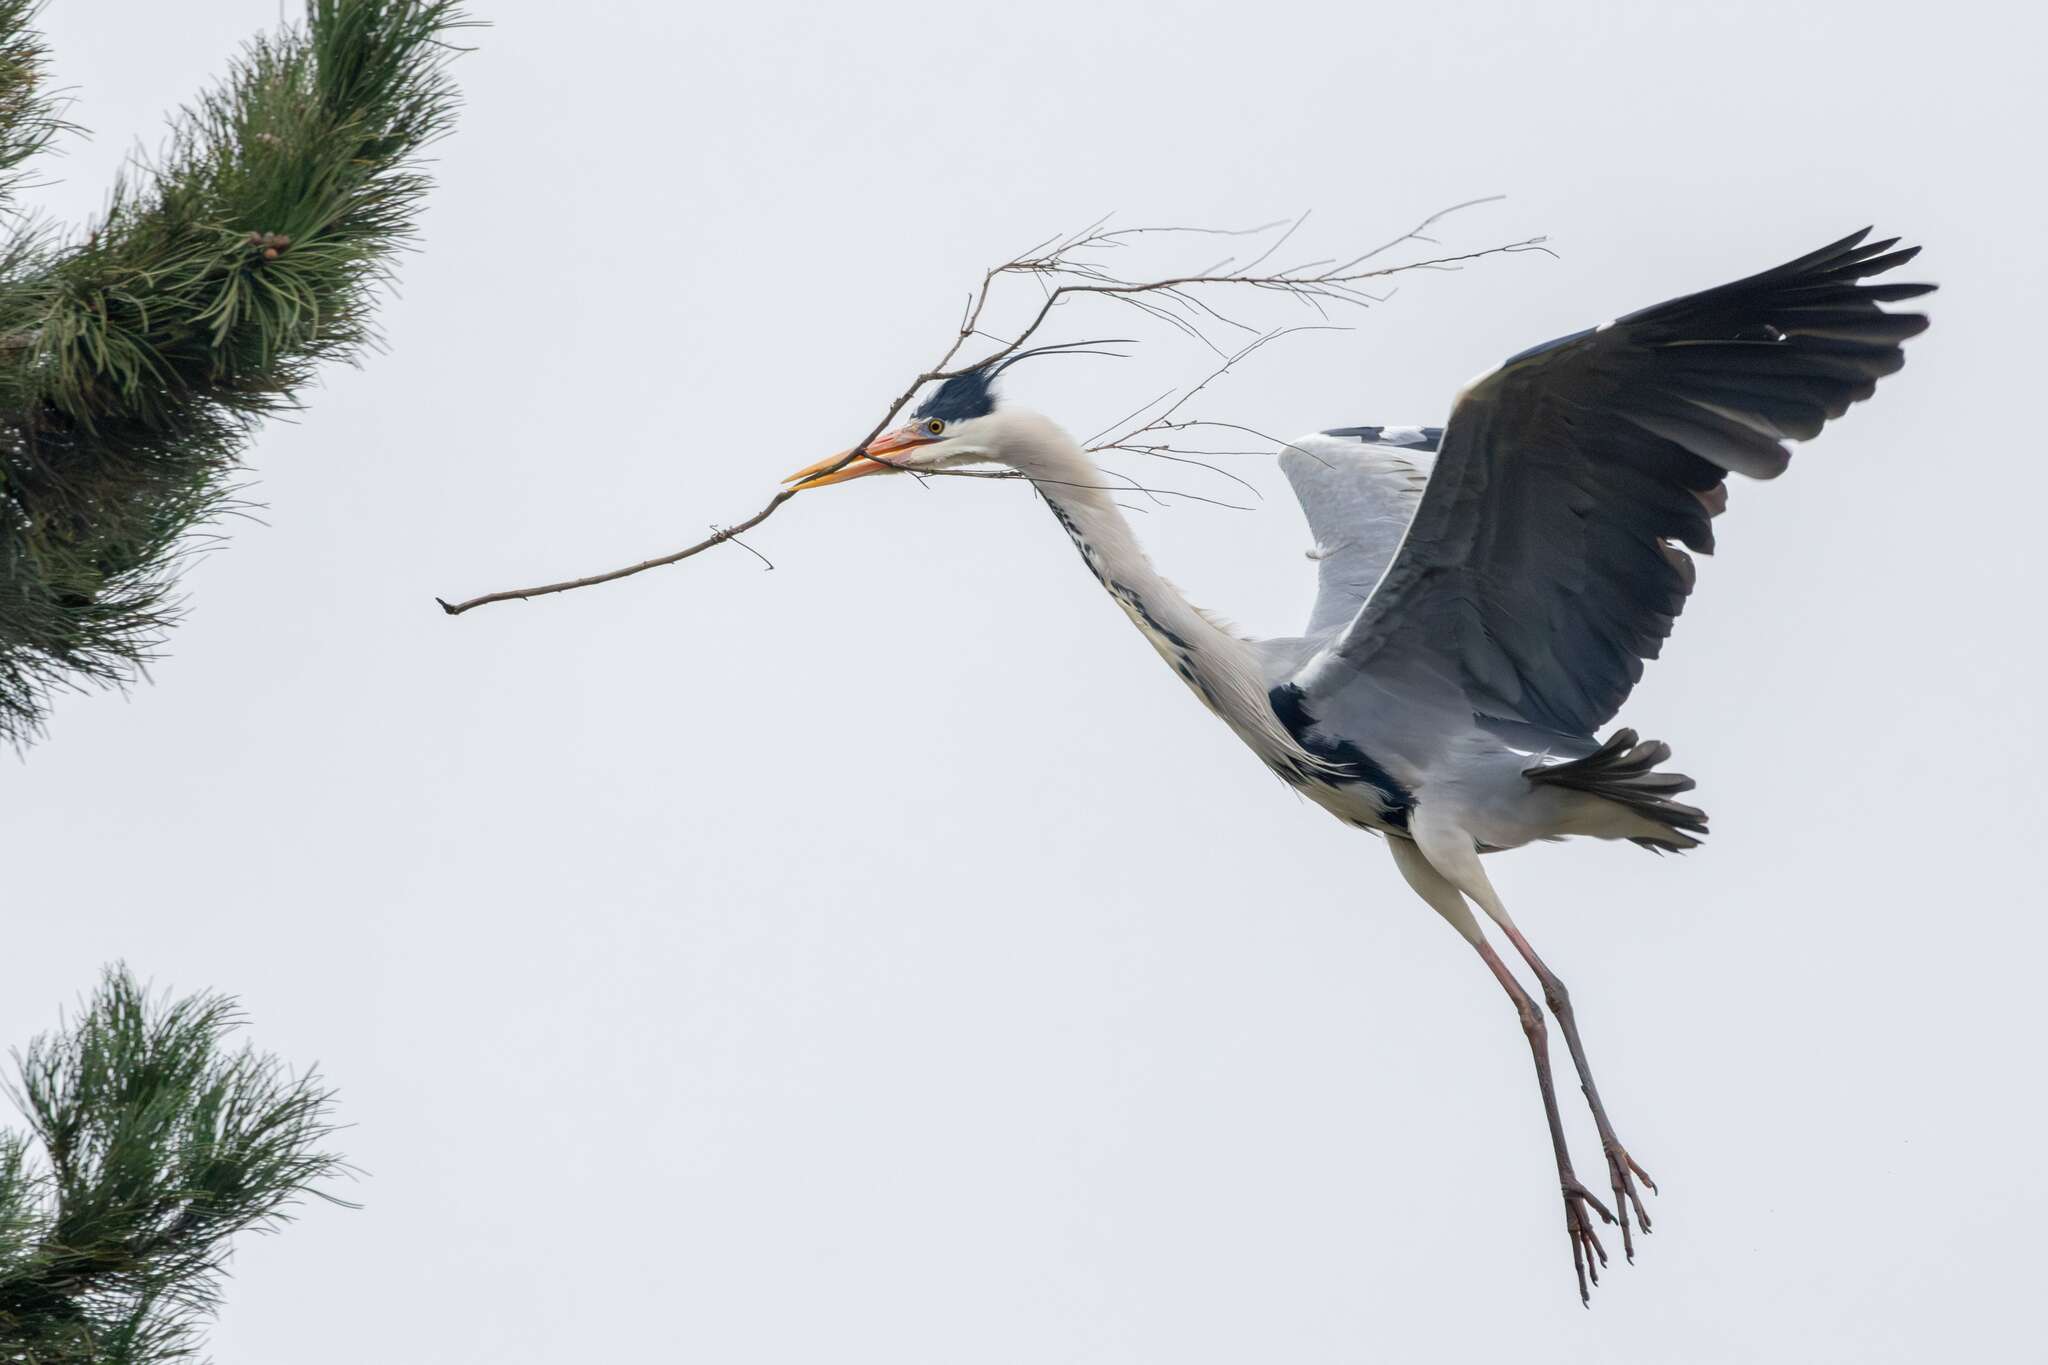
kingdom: Animalia
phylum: Chordata
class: Aves
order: Pelecaniformes
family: Ardeidae
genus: Ardea
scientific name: Ardea cinerea
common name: Grey heron
